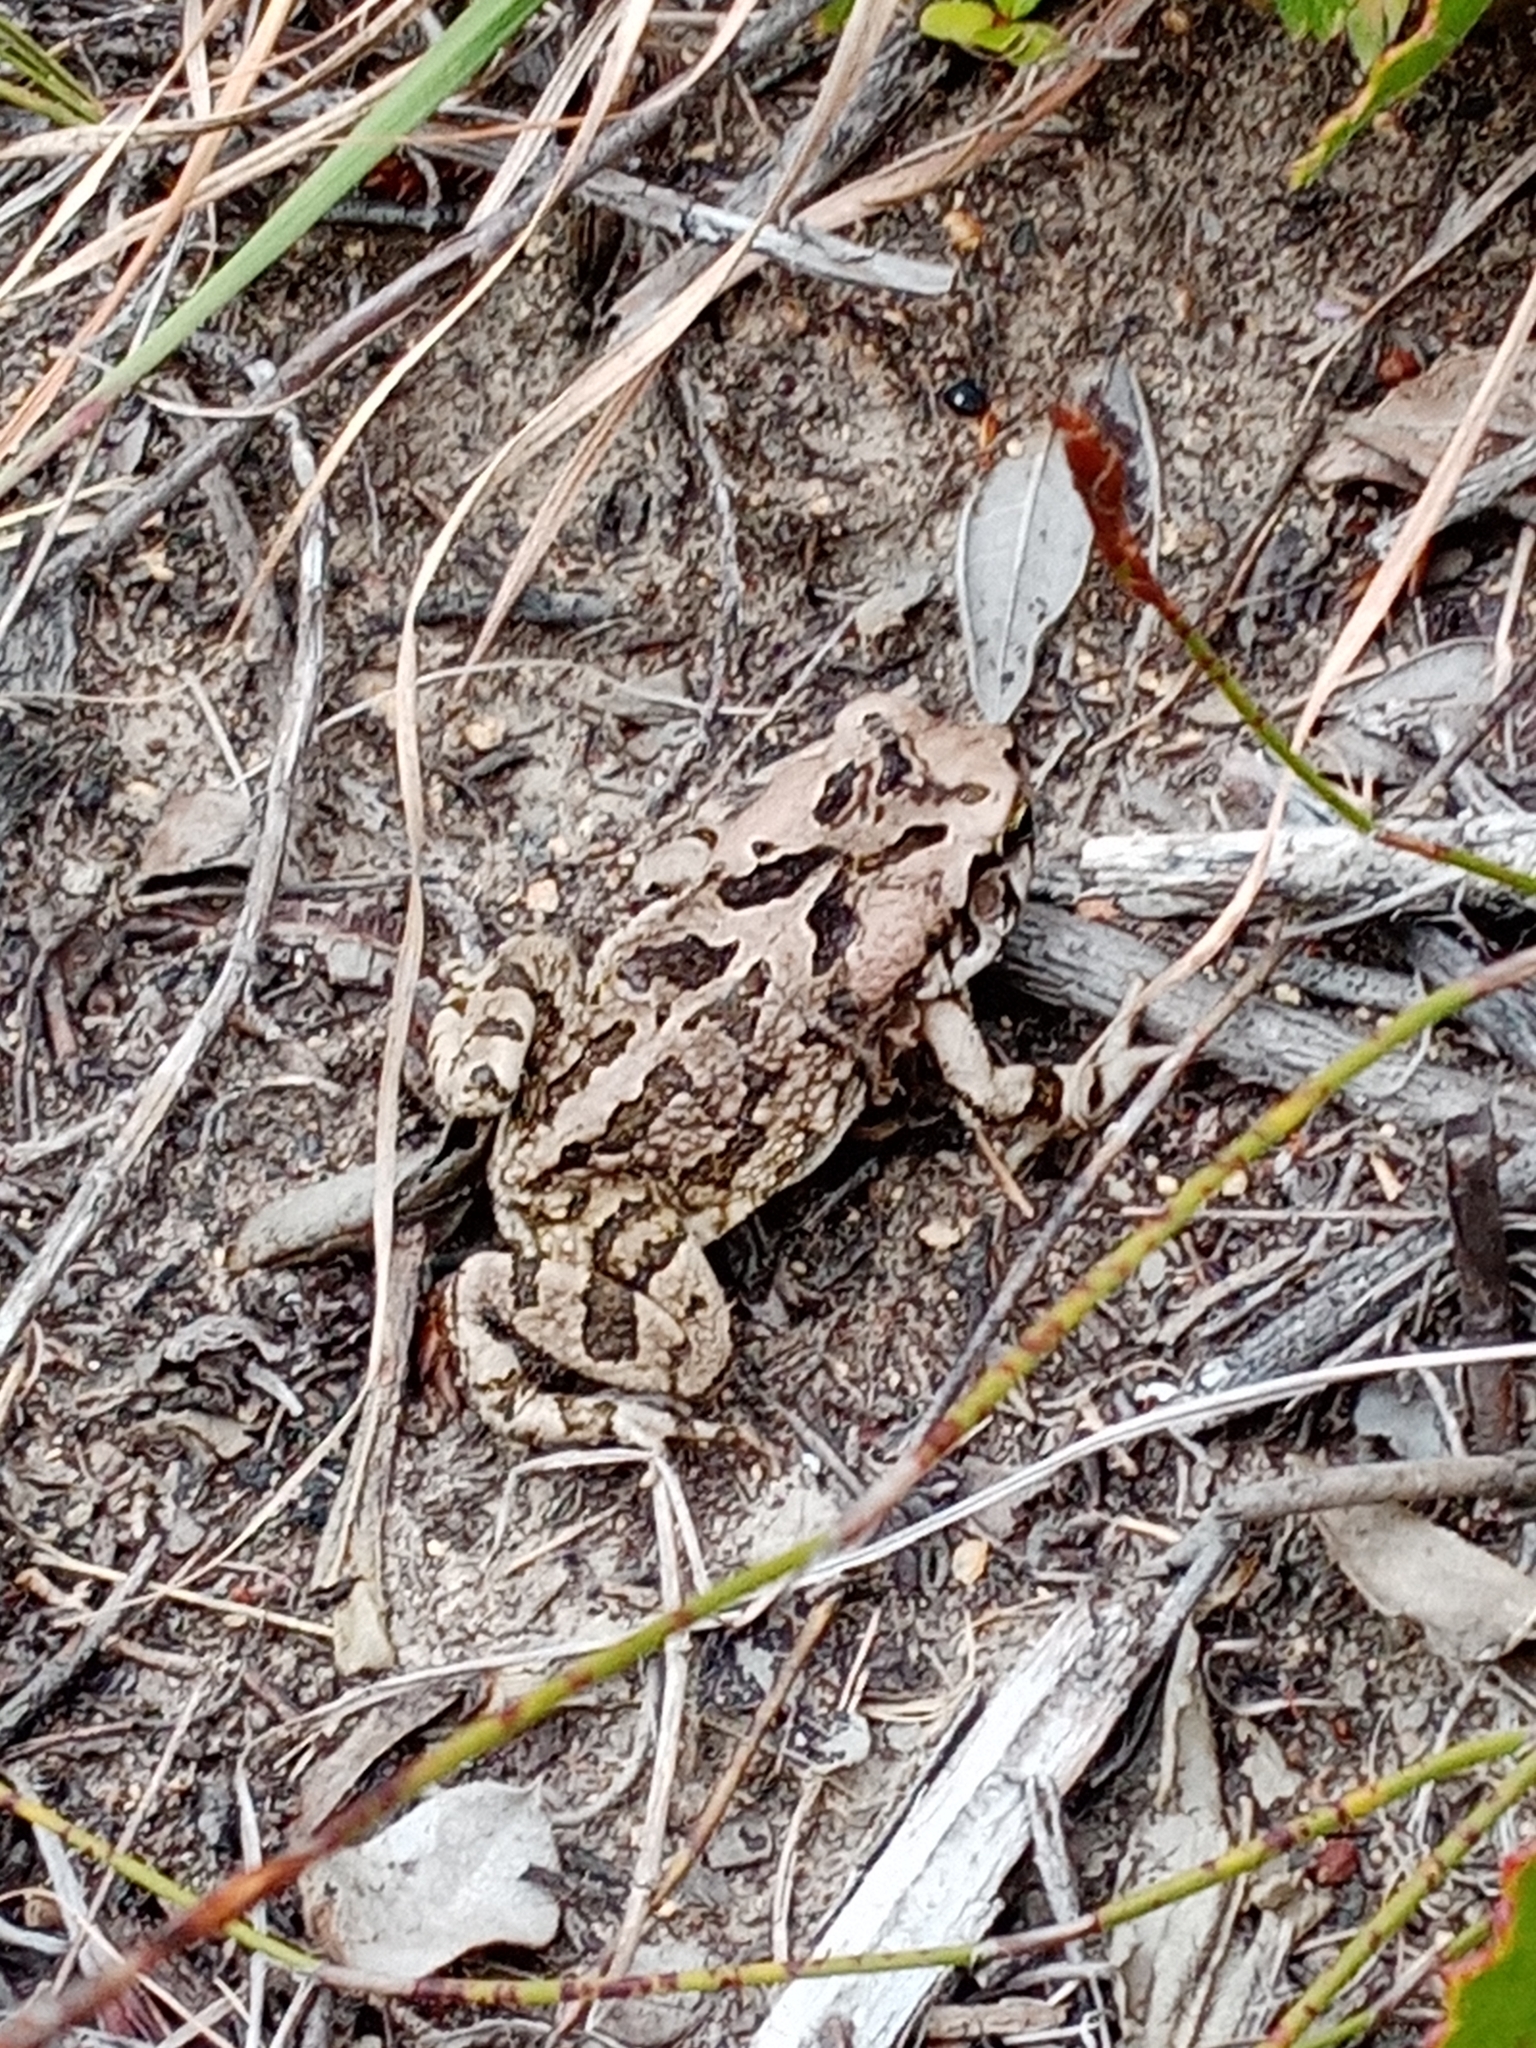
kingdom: Animalia
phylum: Chordata
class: Amphibia
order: Anura
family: Bufonidae
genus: Sclerophrys
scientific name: Sclerophrys capensis
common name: Ranger’s toad
